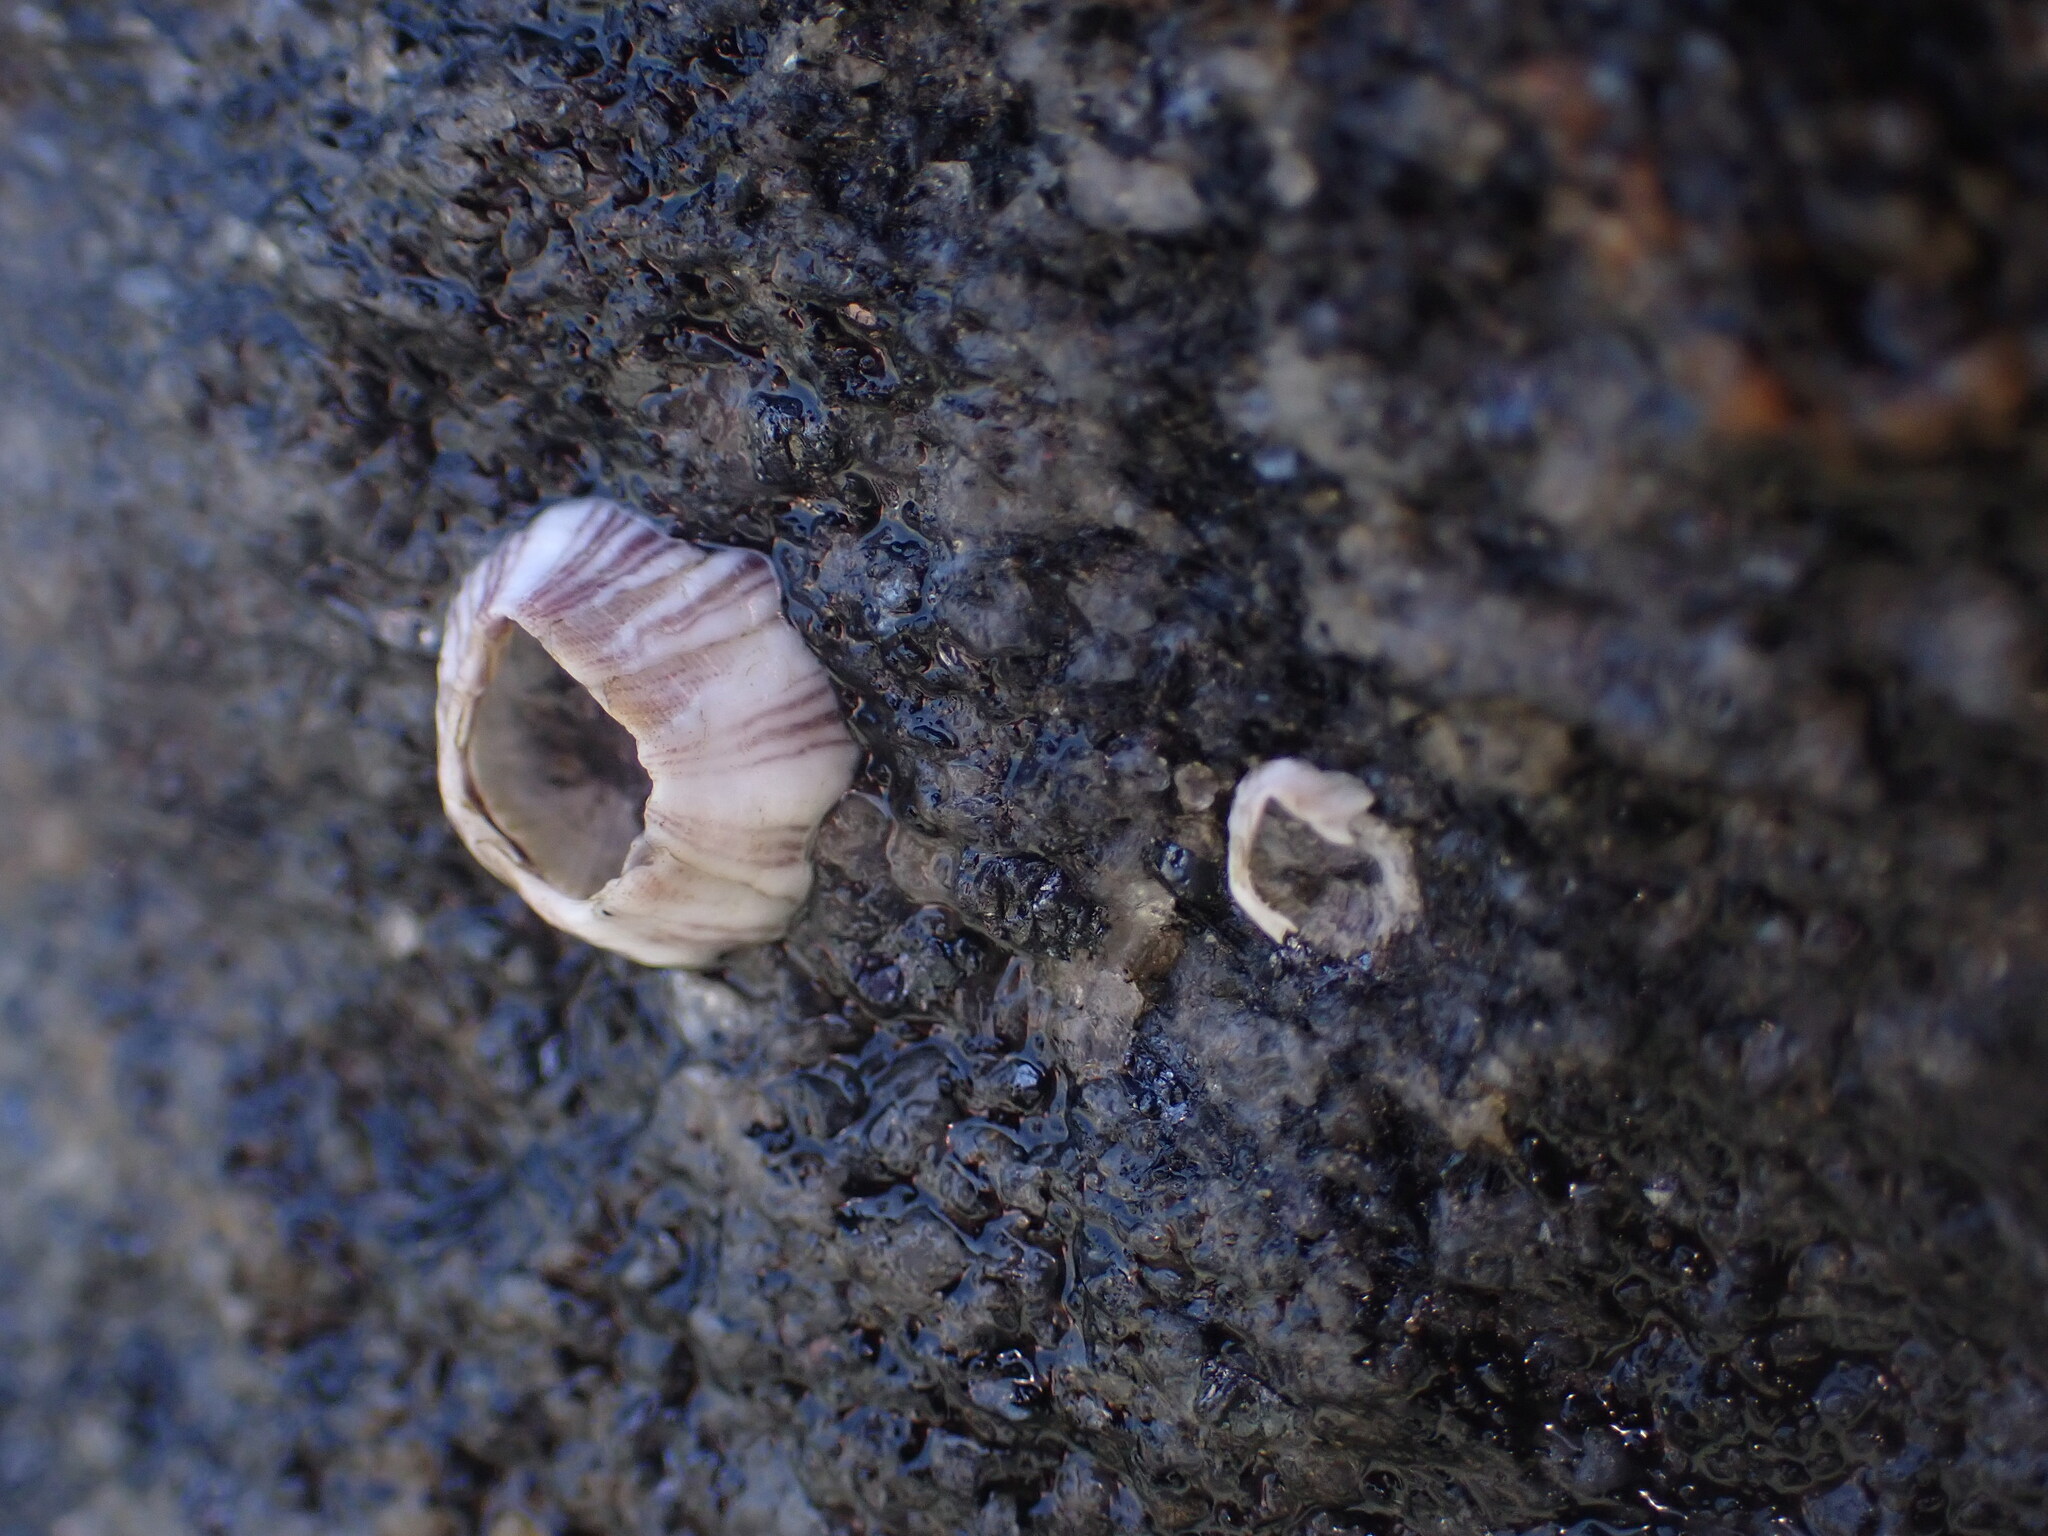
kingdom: Animalia
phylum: Arthropoda
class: Maxillopoda
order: Sessilia
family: Balanidae
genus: Amphibalanus
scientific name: Amphibalanus amphitrite
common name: Striped acorn barnacle
